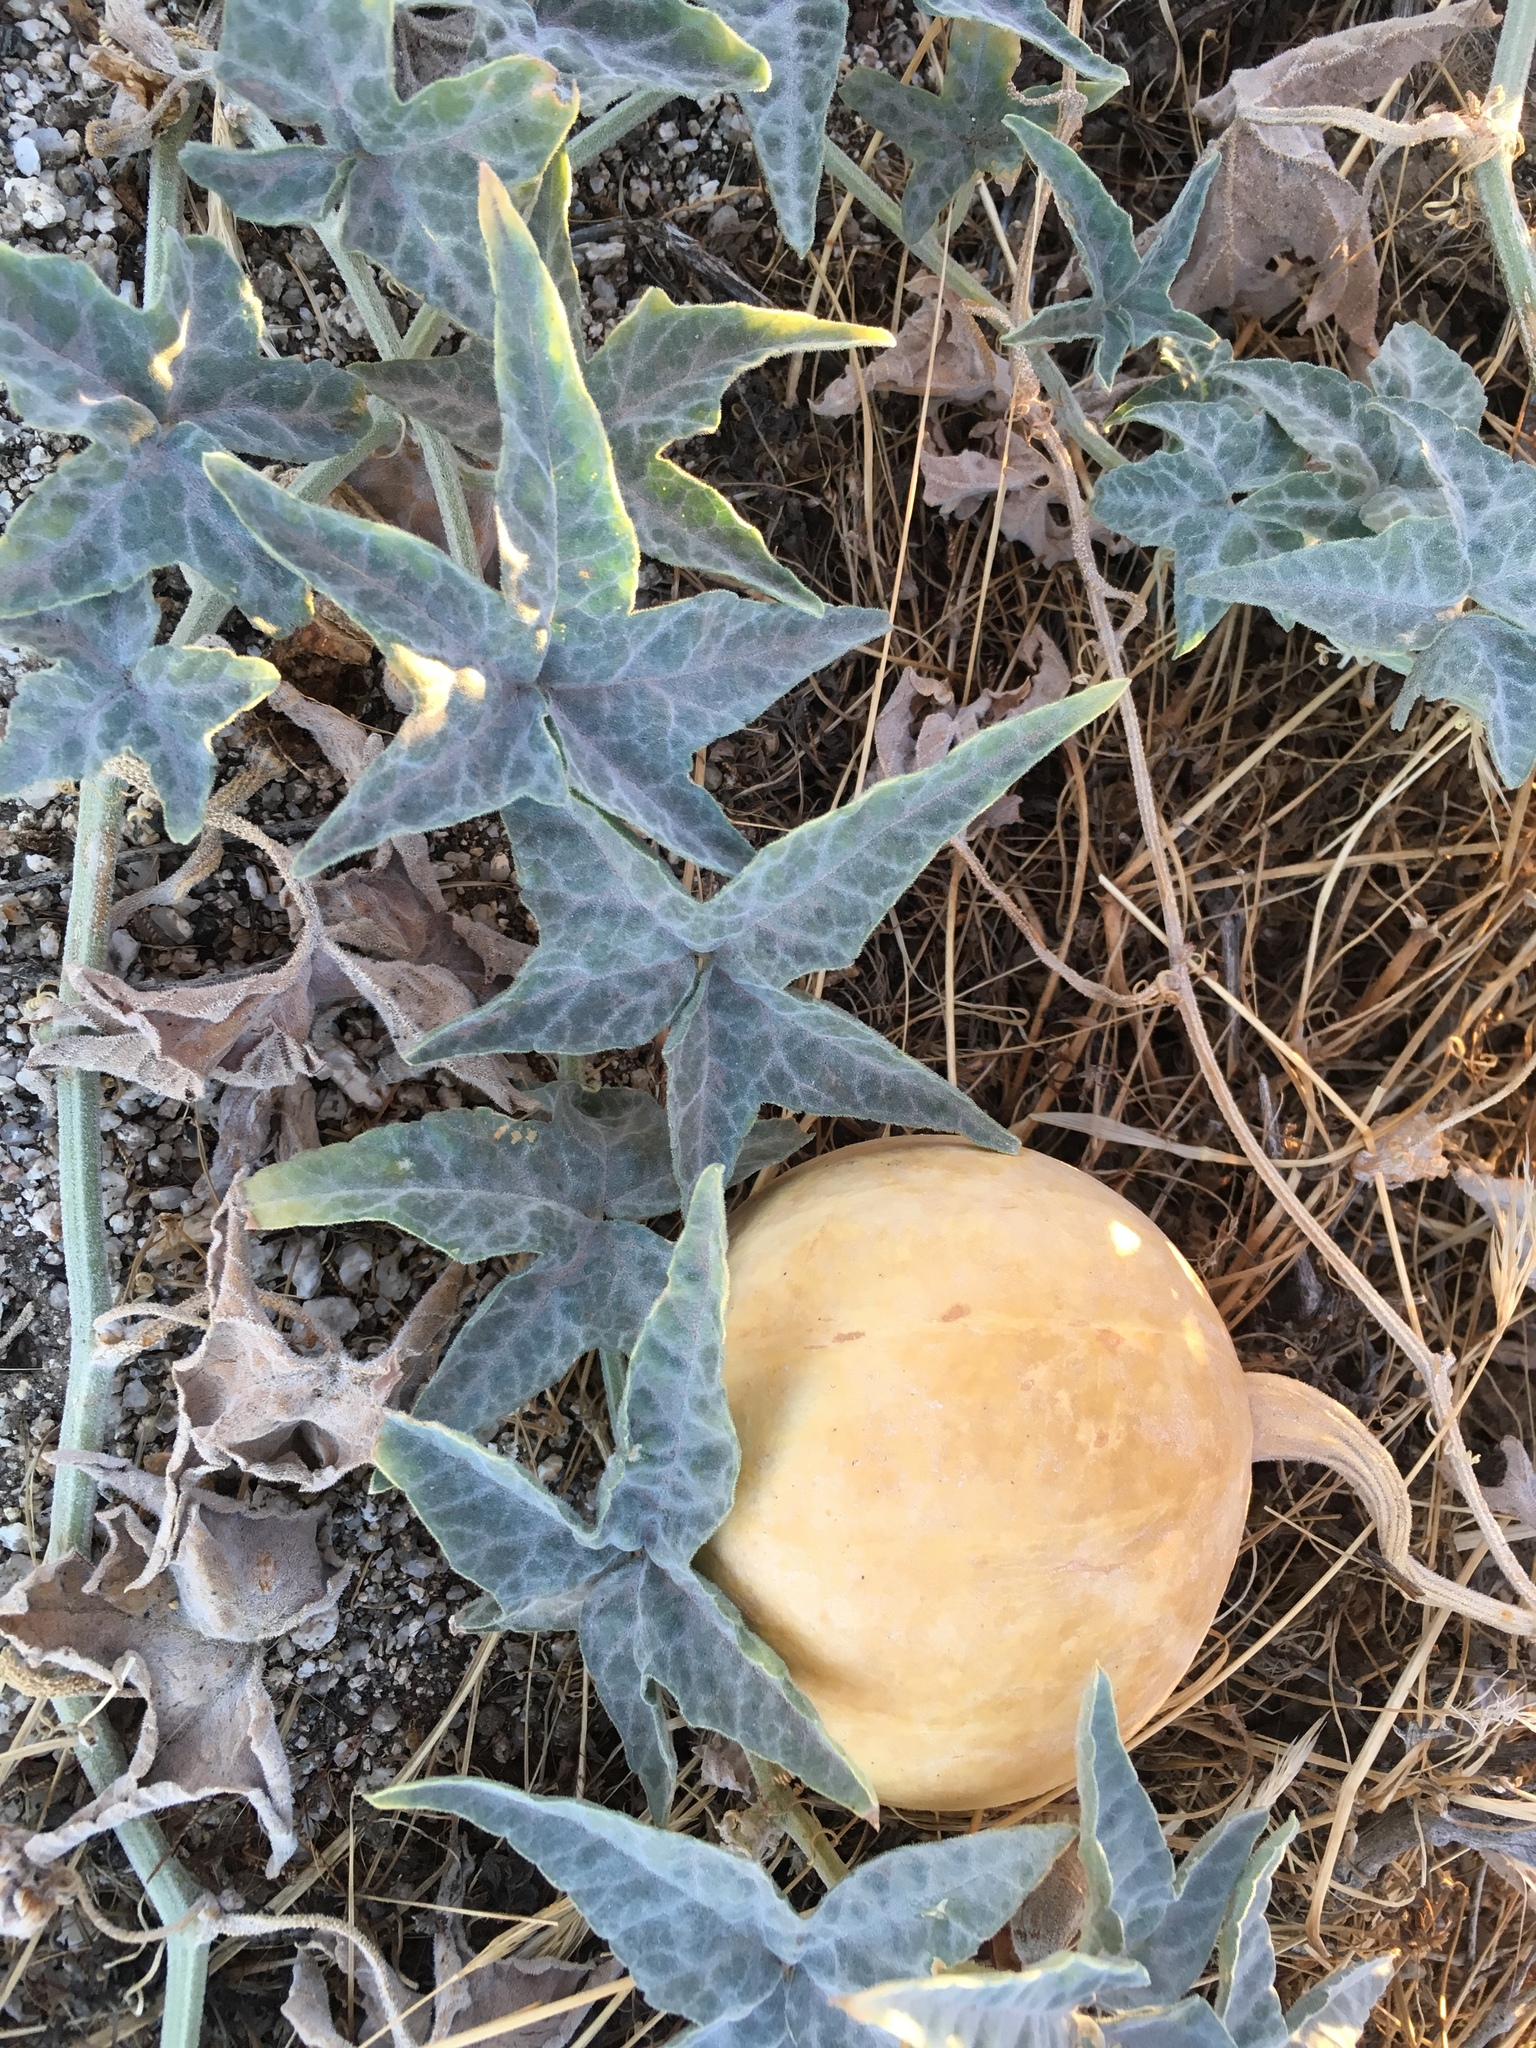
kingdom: Plantae
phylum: Tracheophyta
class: Magnoliopsida
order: Cucurbitales
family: Cucurbitaceae
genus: Cucurbita
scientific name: Cucurbita palmata
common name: Coyote-melon
